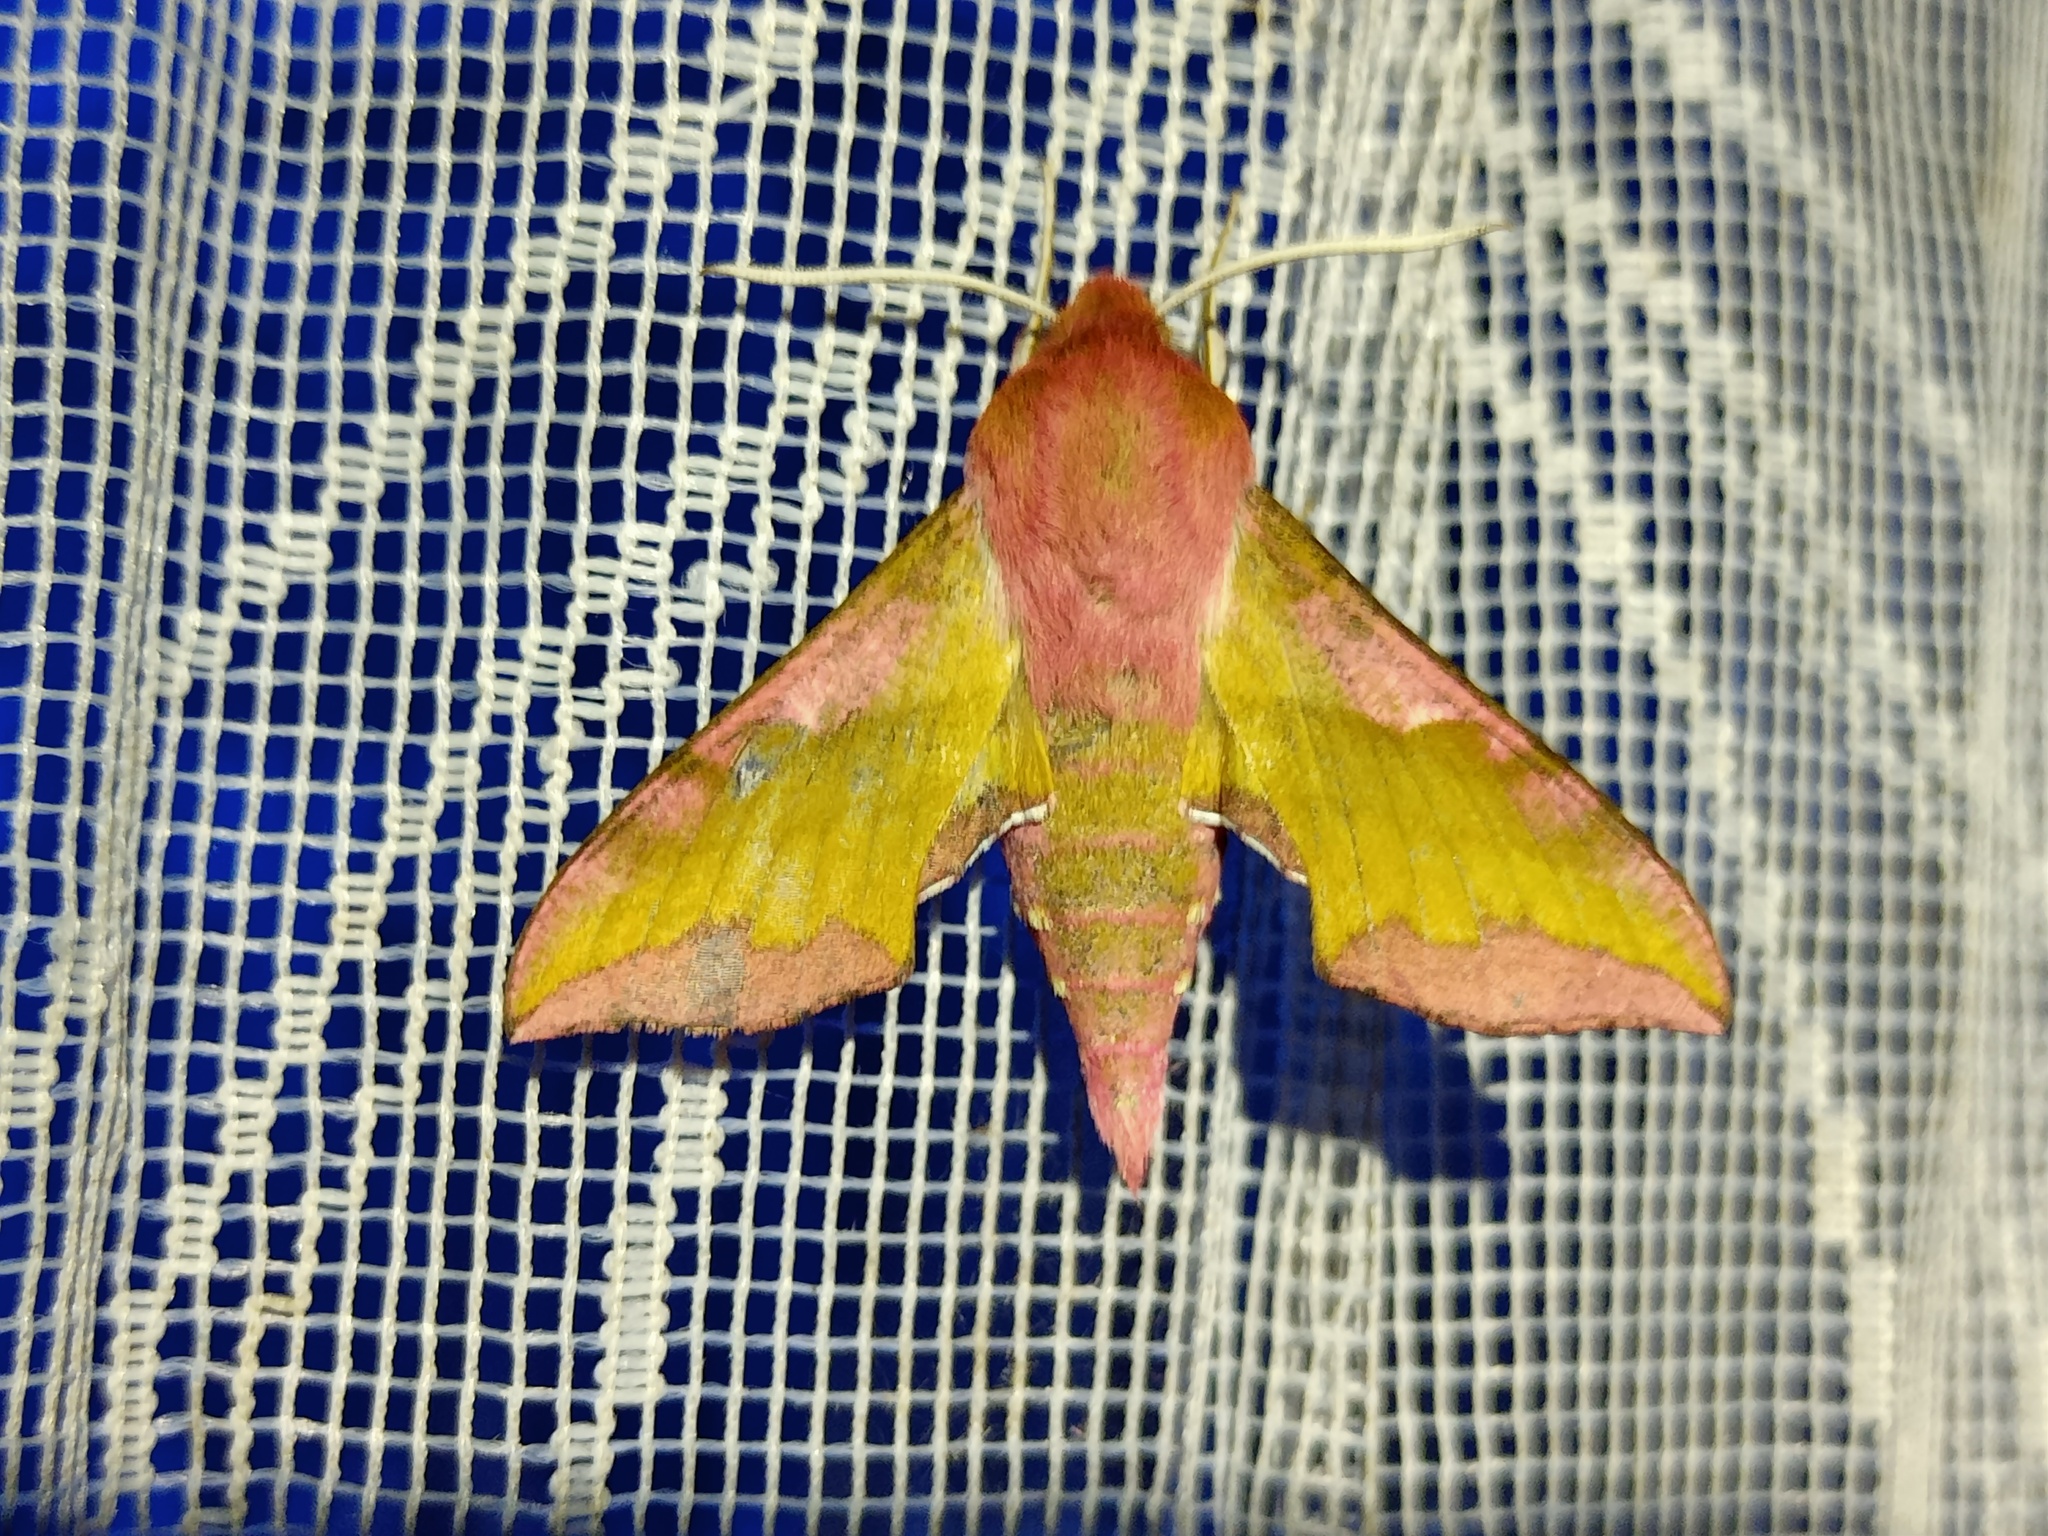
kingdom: Animalia
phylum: Arthropoda
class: Insecta
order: Lepidoptera
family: Sphingidae
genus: Deilephila
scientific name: Deilephila porcellus
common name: Small elephant hawk-moth
